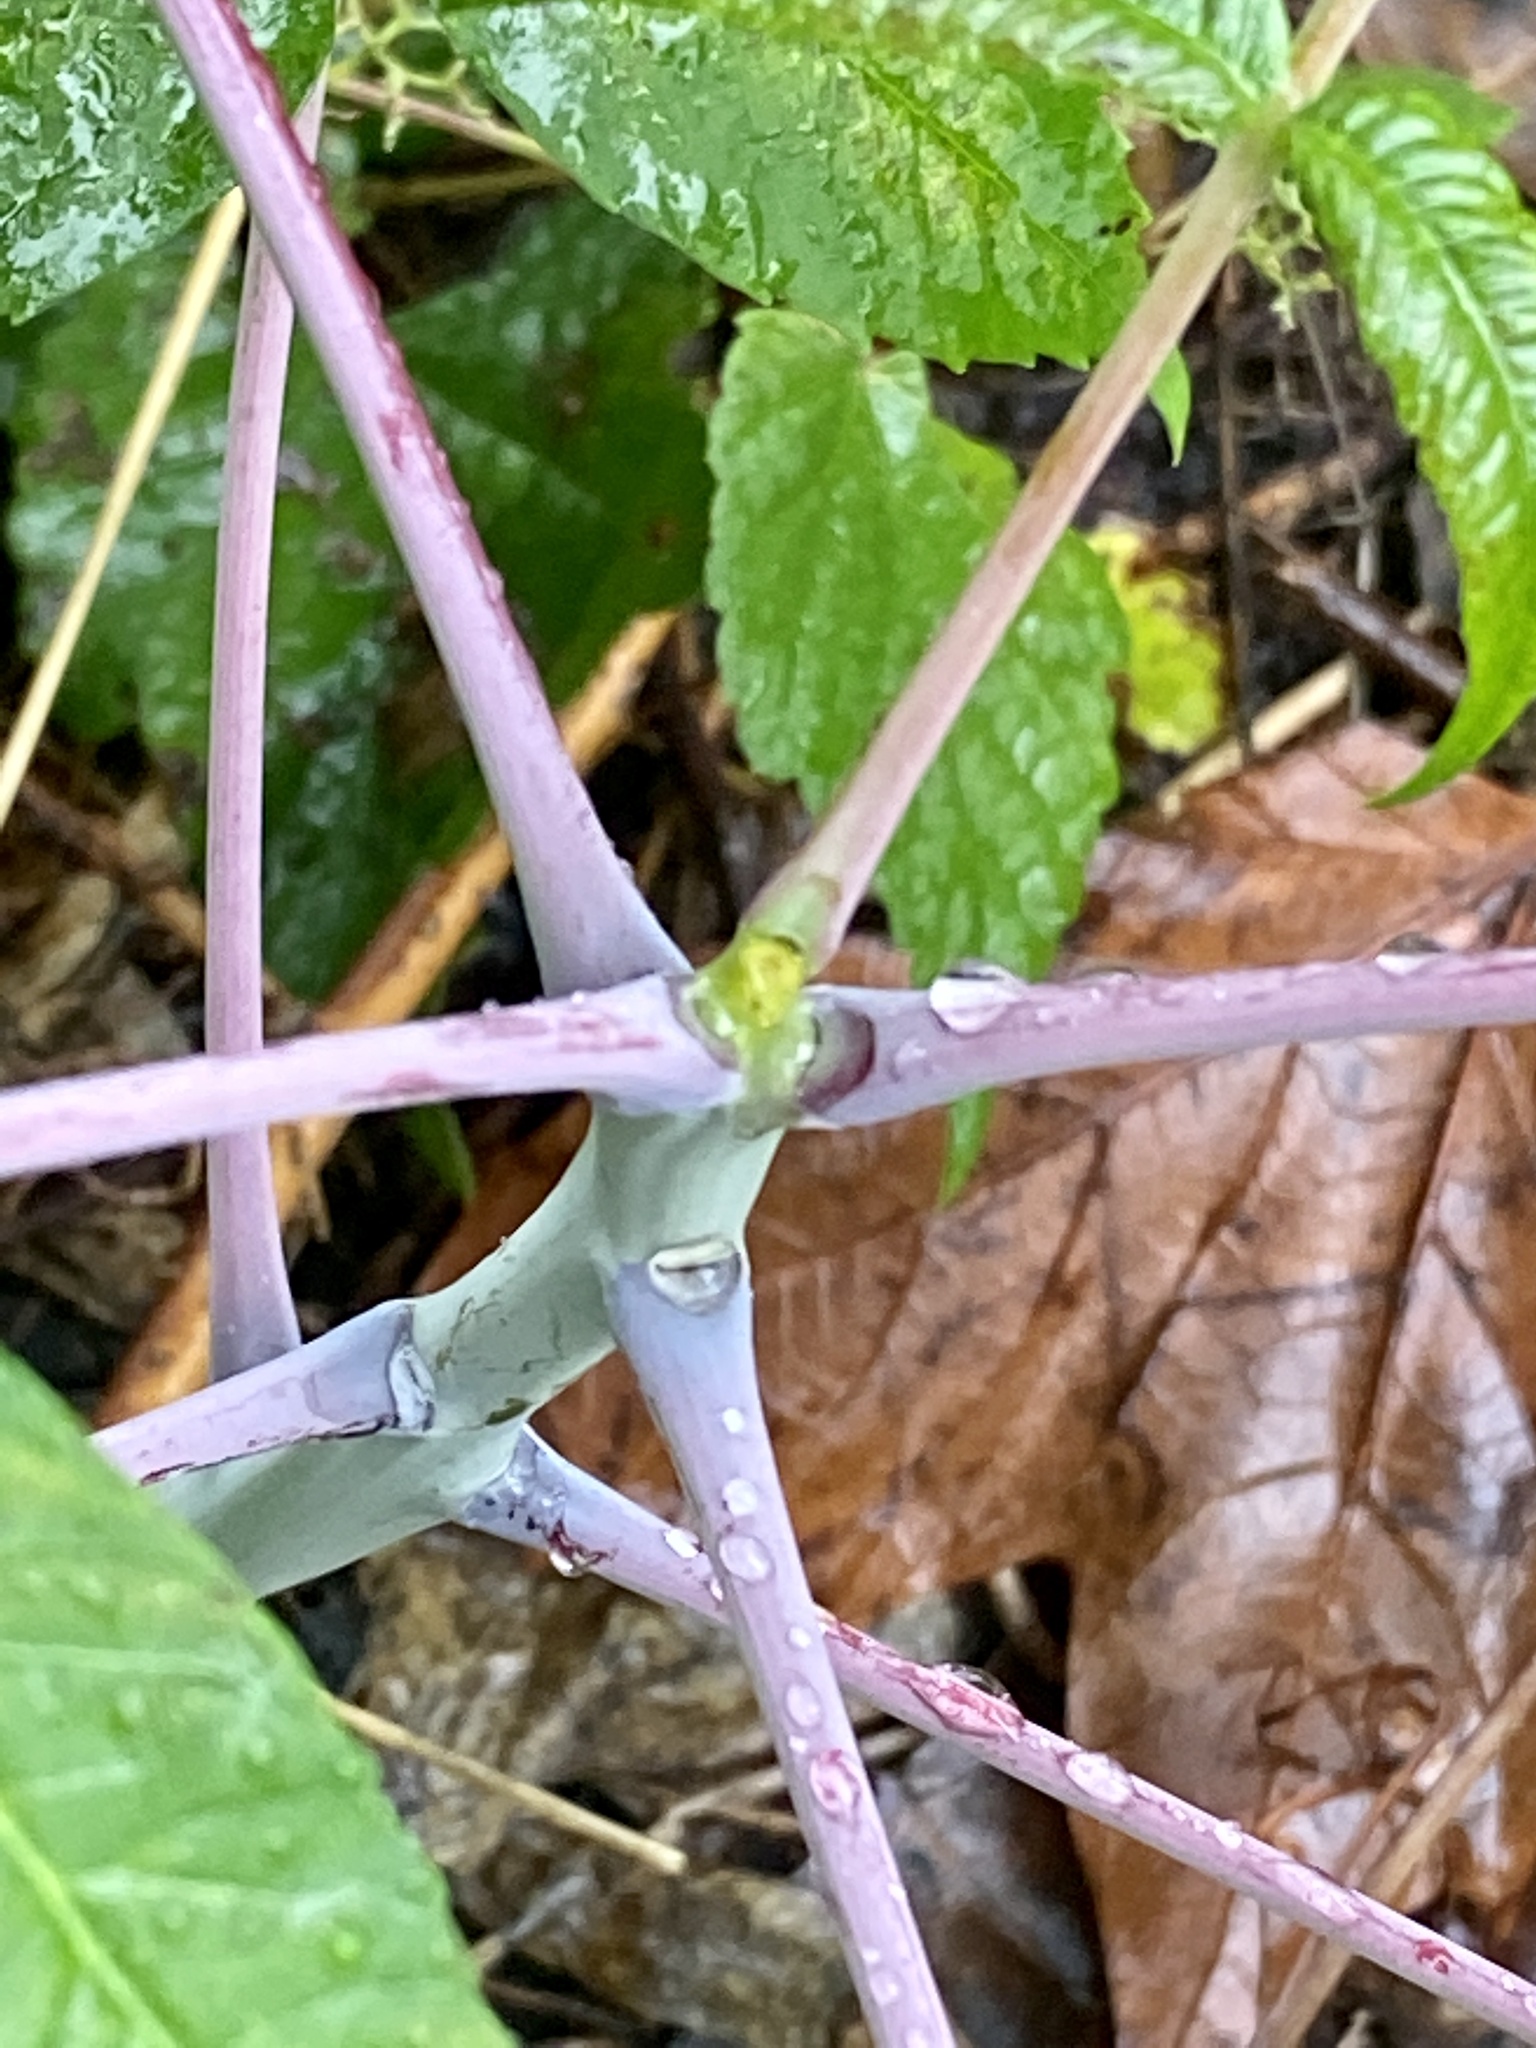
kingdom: Plantae
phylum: Tracheophyta
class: Magnoliopsida
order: Sapindales
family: Anacardiaceae
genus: Rhus
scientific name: Rhus glabra
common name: Scarlet sumac
